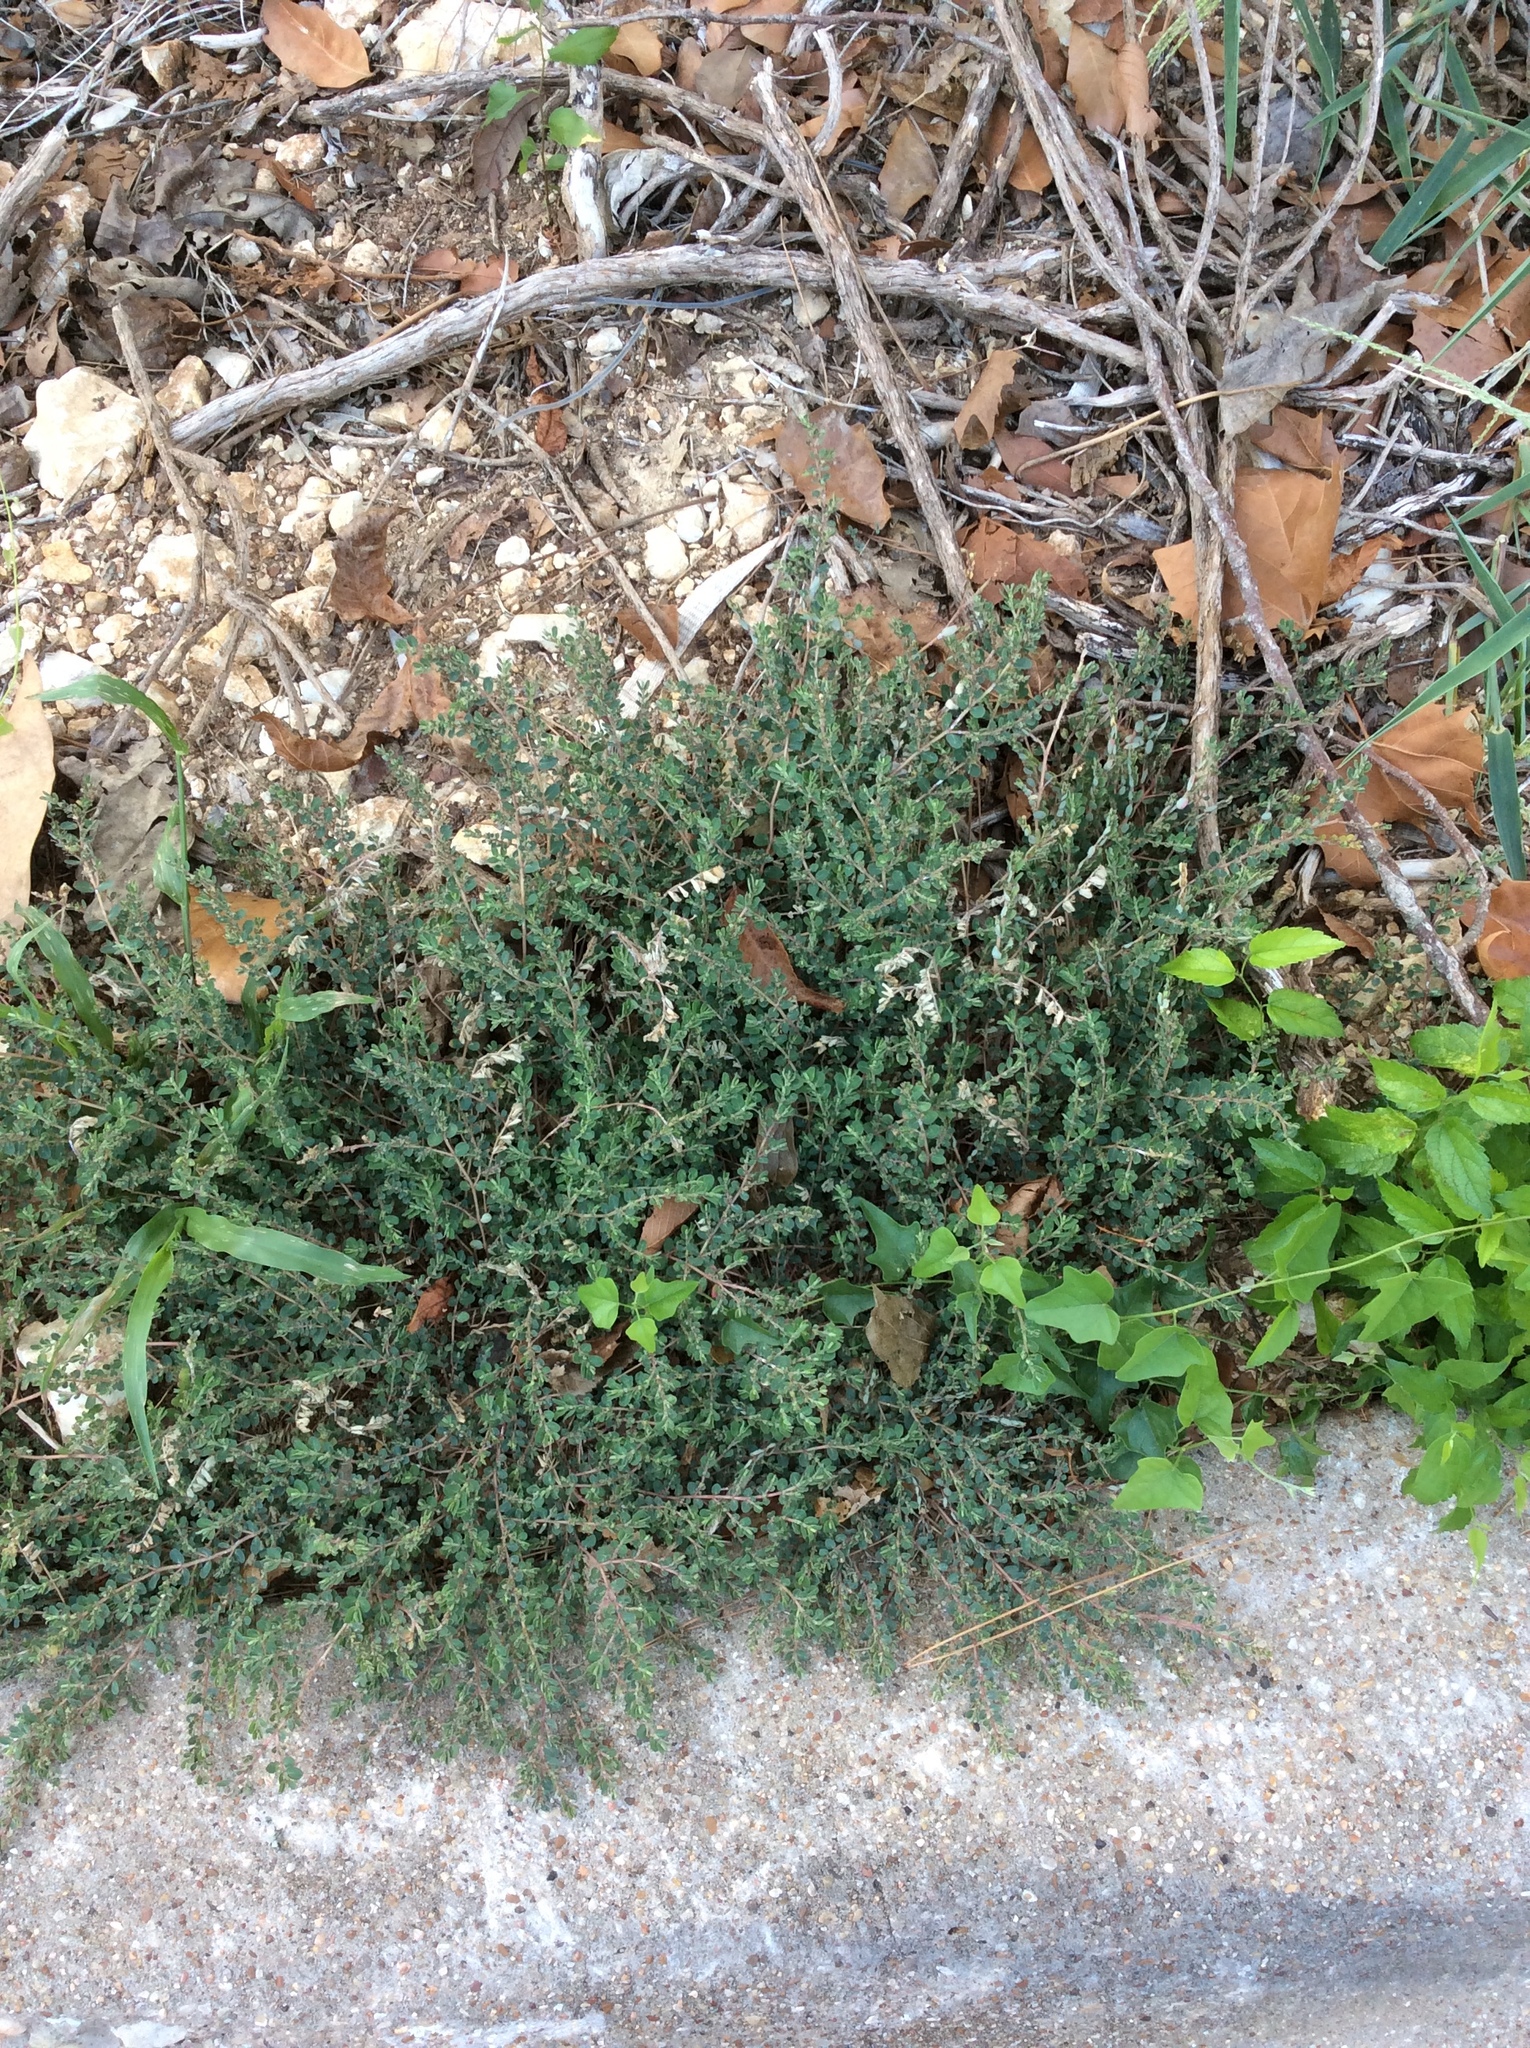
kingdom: Plantae
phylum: Tracheophyta
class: Magnoliopsida
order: Malpighiales
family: Euphorbiaceae
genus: Euphorbia
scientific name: Euphorbia prostrata
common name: Prostrate sandmat
